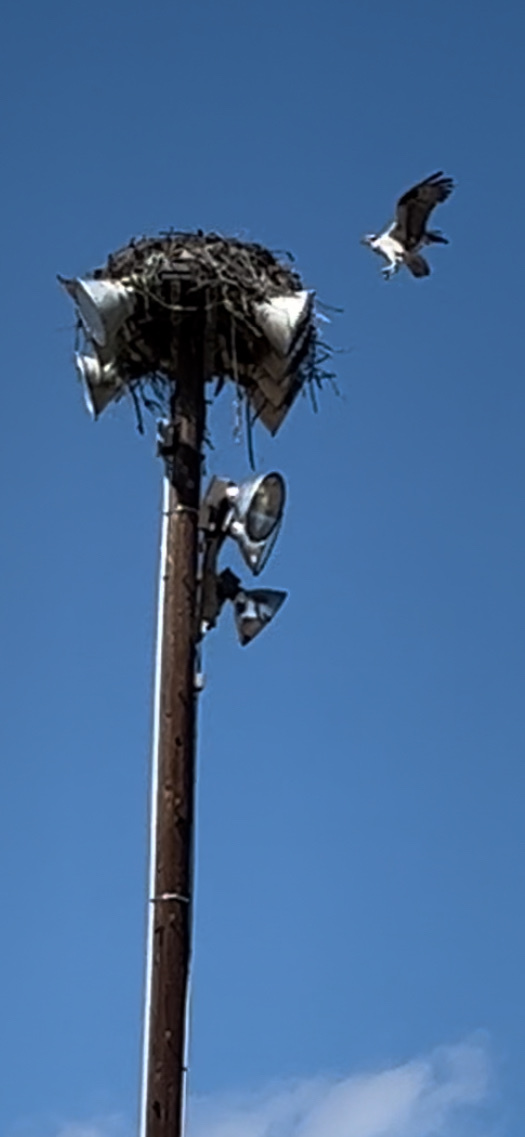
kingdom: Animalia
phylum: Chordata
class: Aves
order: Accipitriformes
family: Pandionidae
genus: Pandion
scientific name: Pandion haliaetus
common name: Osprey
